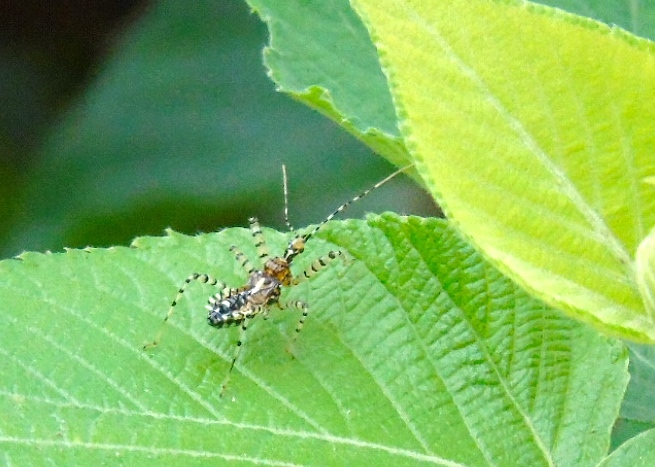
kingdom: Animalia
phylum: Arthropoda
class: Insecta
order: Hemiptera
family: Reduviidae
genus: Pselliopus
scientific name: Pselliopus
